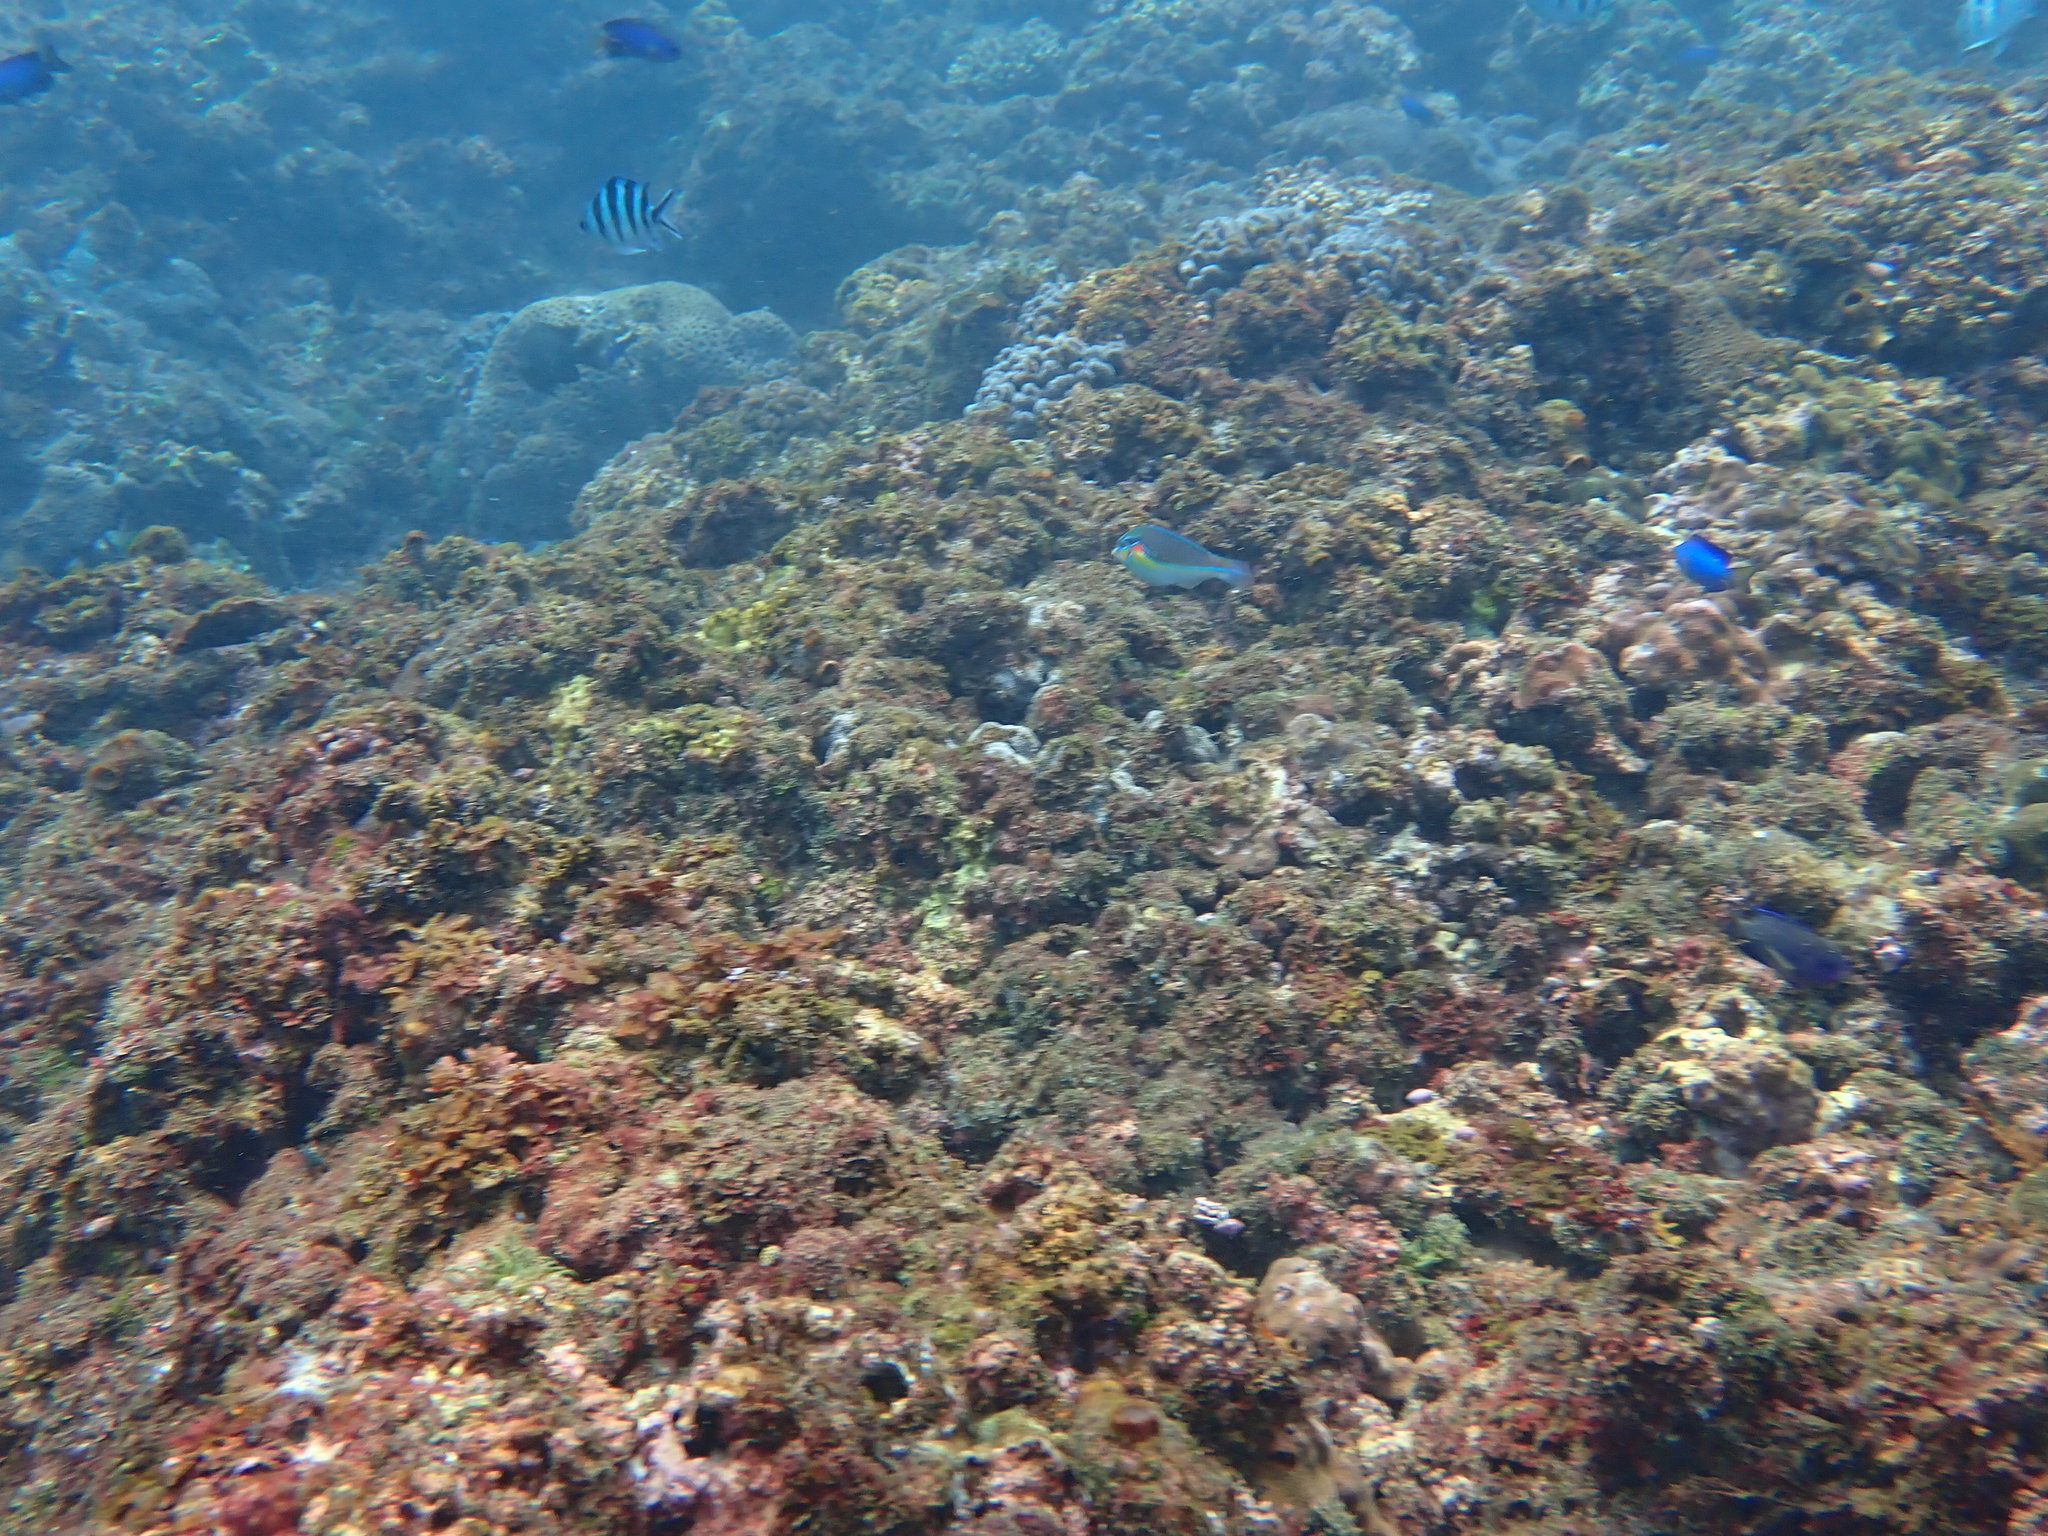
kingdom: Animalia
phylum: Chordata
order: Perciformes
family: Labridae
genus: Stethojulis
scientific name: Stethojulis bandanensis
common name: Red shoulder wrasse
